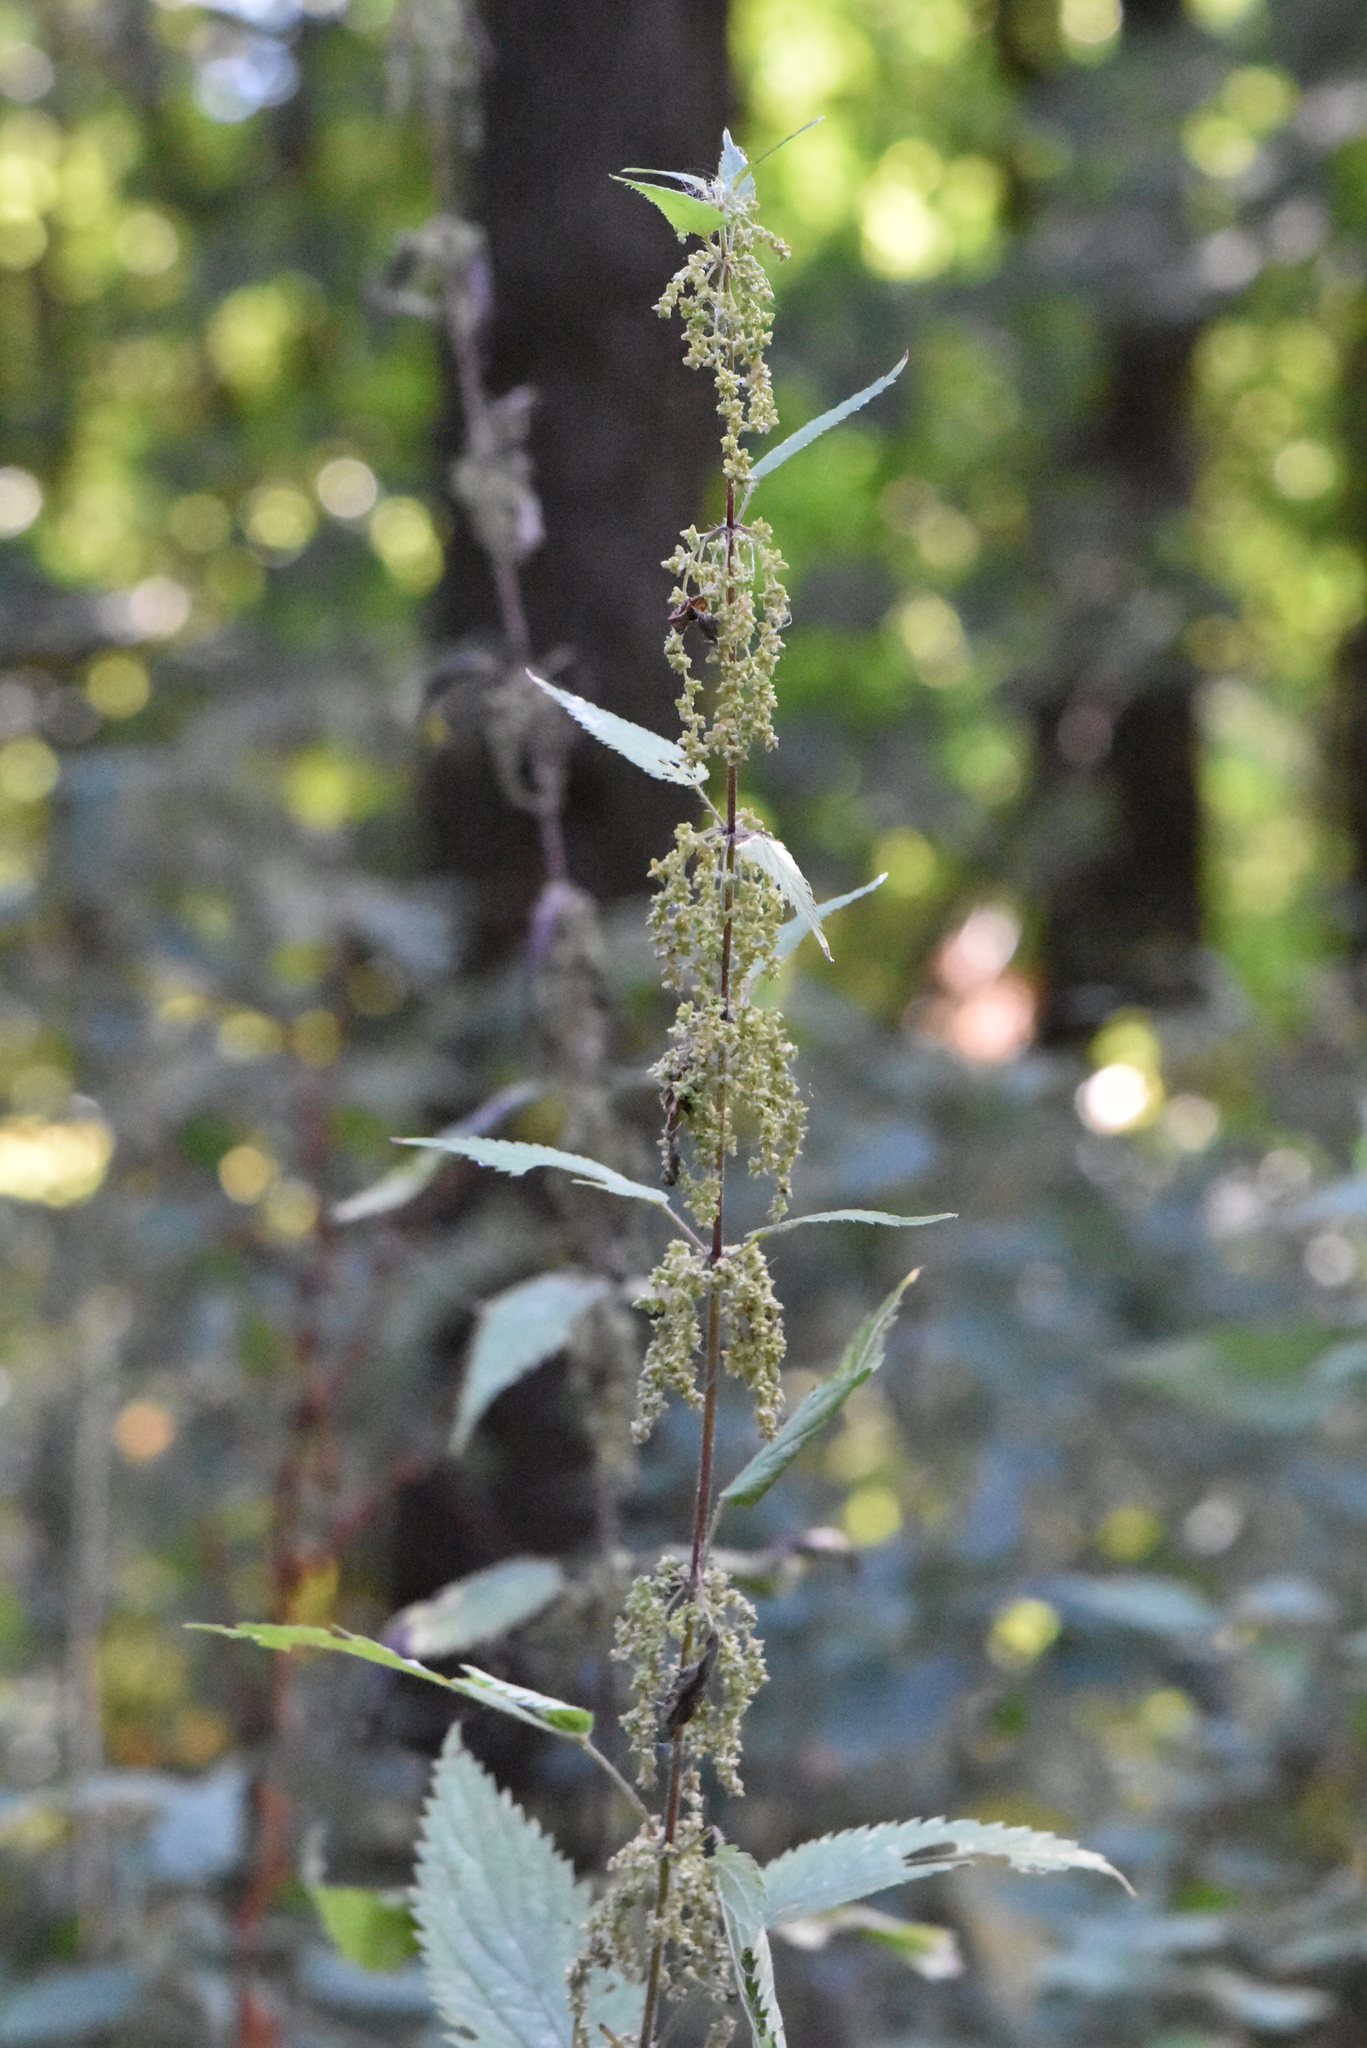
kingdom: Plantae
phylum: Tracheophyta
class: Magnoliopsida
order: Rosales
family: Urticaceae
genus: Urtica
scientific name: Urtica dioica
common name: Common nettle
